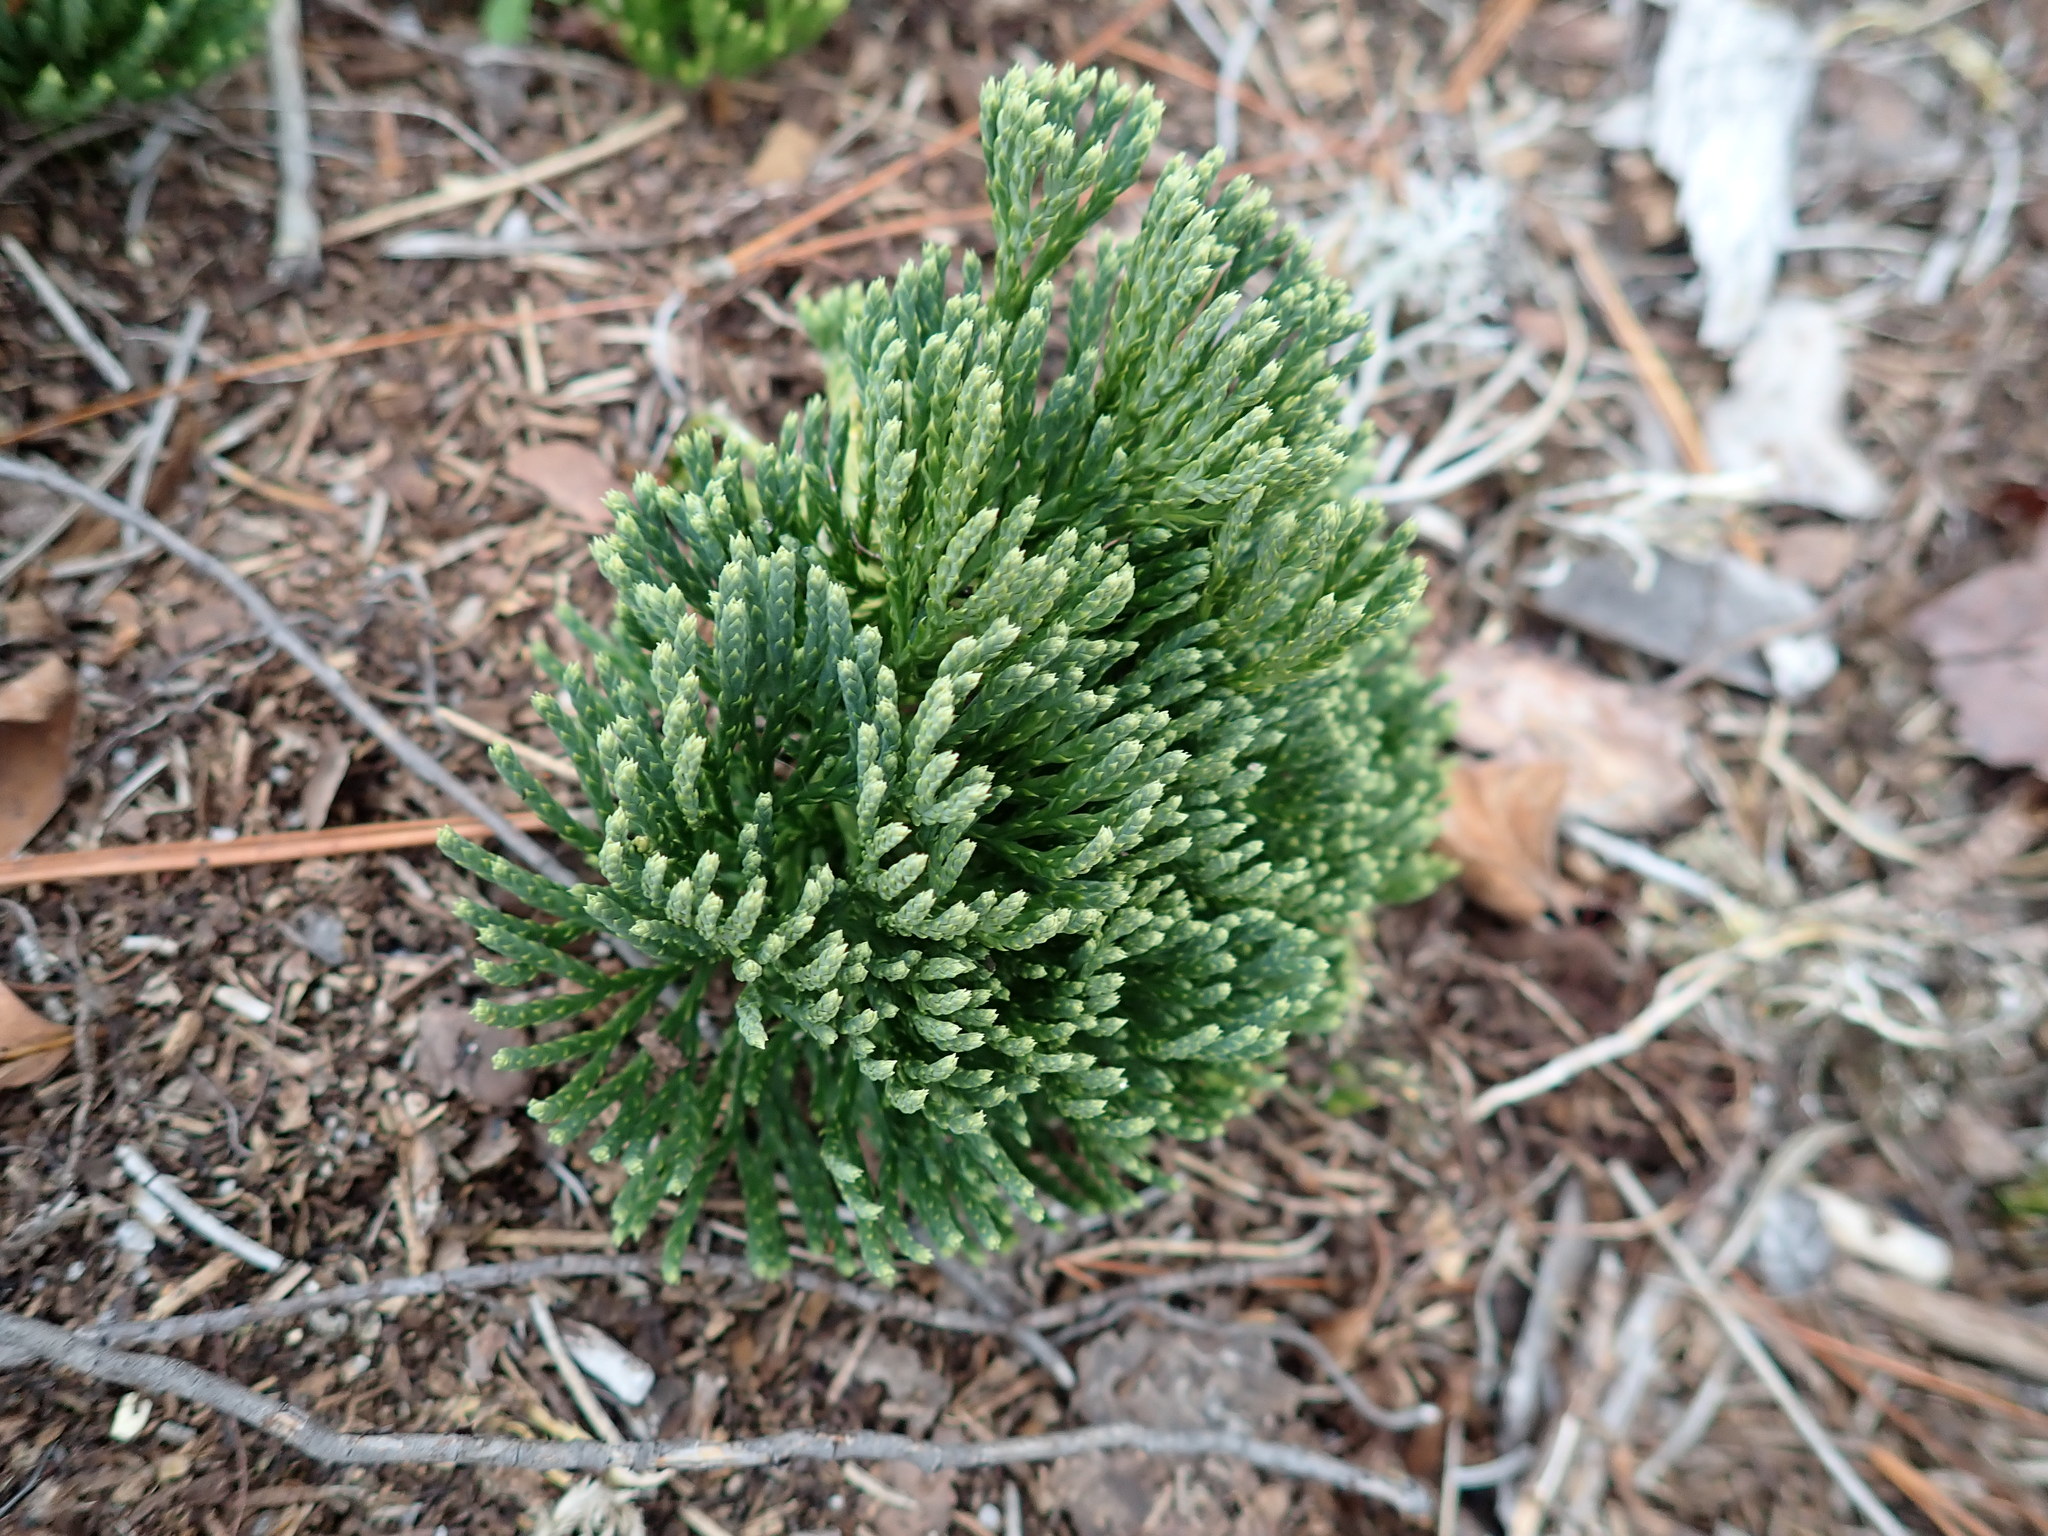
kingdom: Plantae
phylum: Tracheophyta
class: Lycopodiopsida
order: Lycopodiales
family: Lycopodiaceae
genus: Diphasiastrum
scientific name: Diphasiastrum tristachyum
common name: Blue ground-cedar
